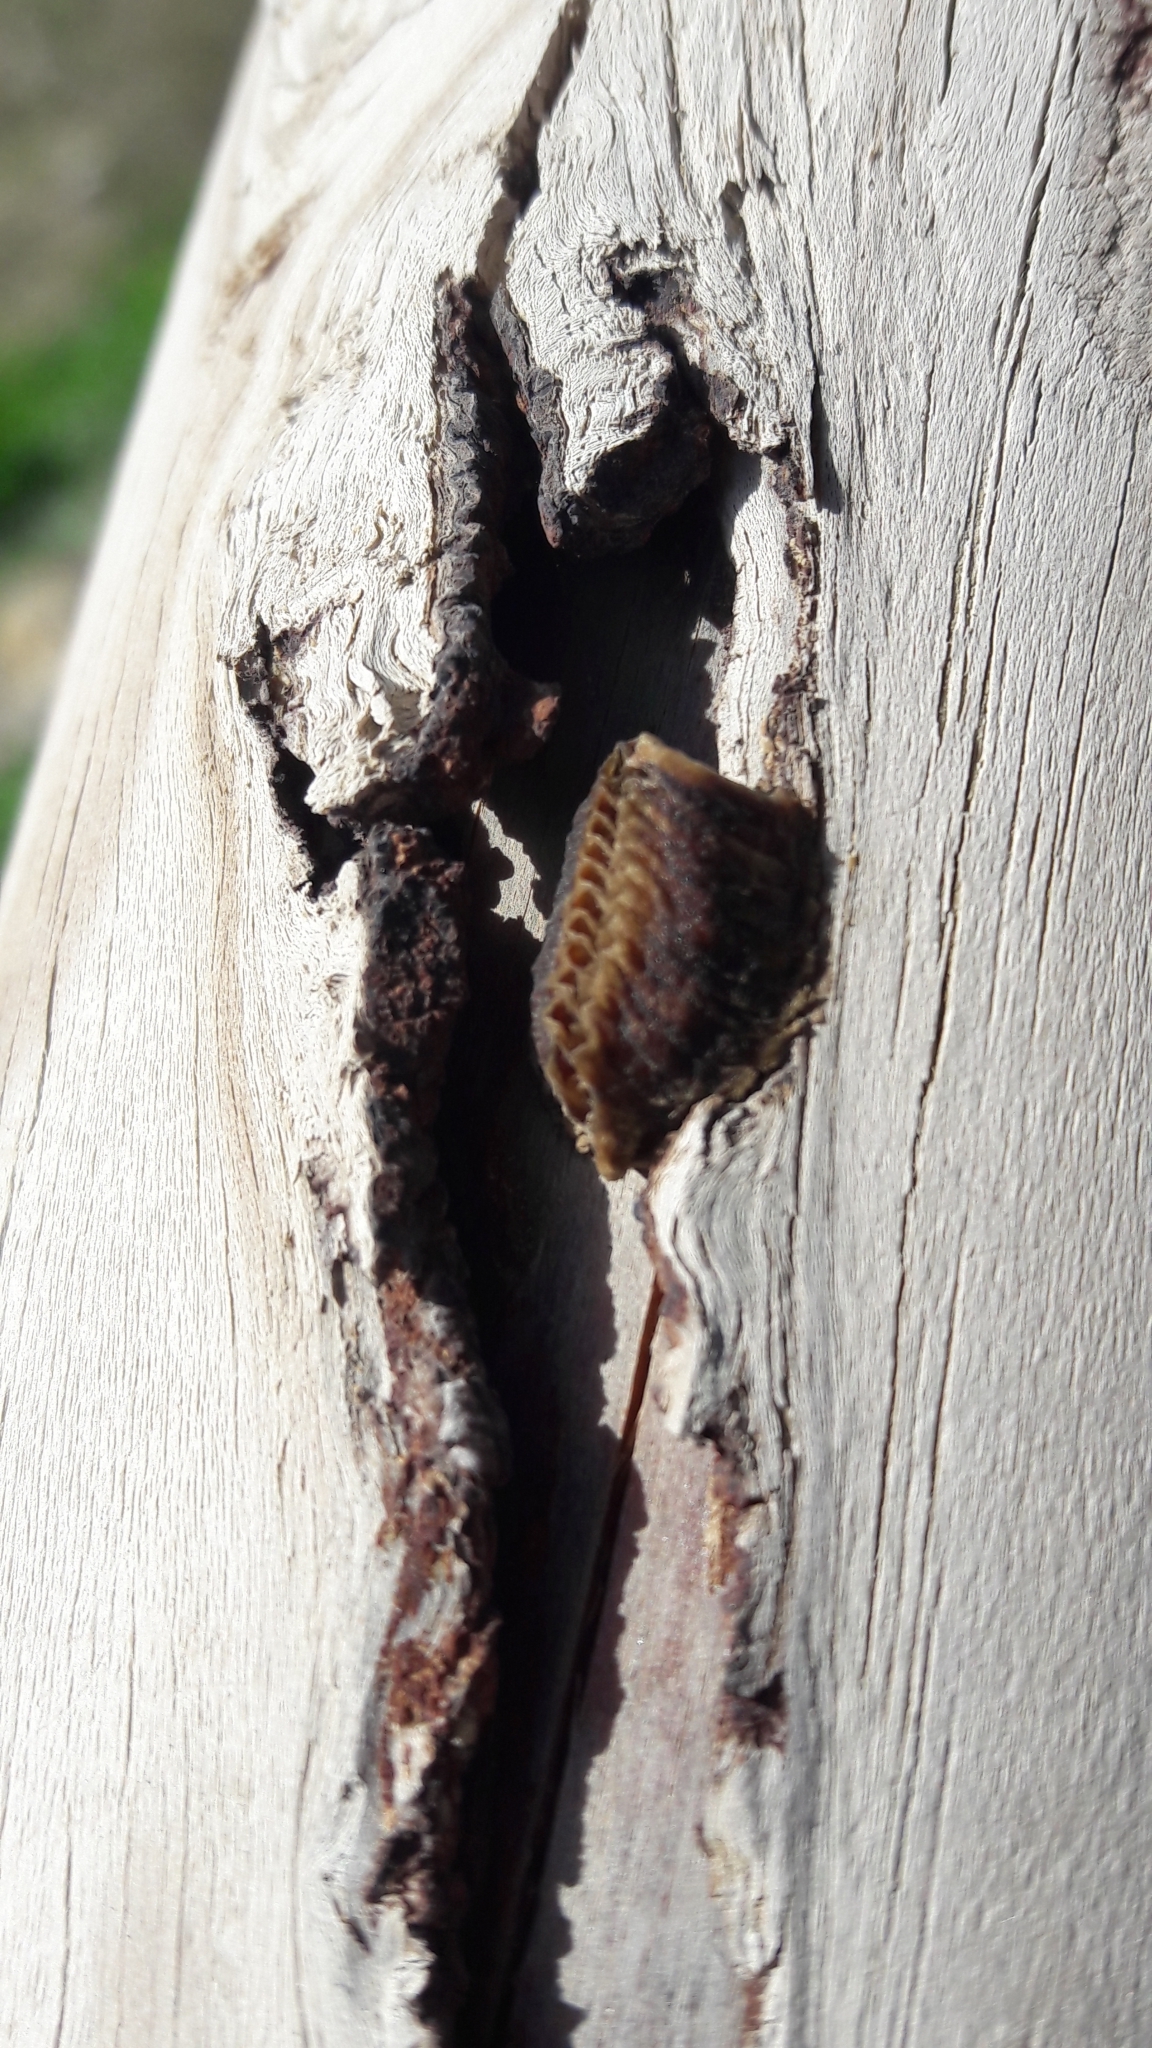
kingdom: Animalia
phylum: Arthropoda
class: Insecta
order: Mantodea
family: Eremiaphilidae
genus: Iris
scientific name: Iris oratoria
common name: Mediterranean mantis
